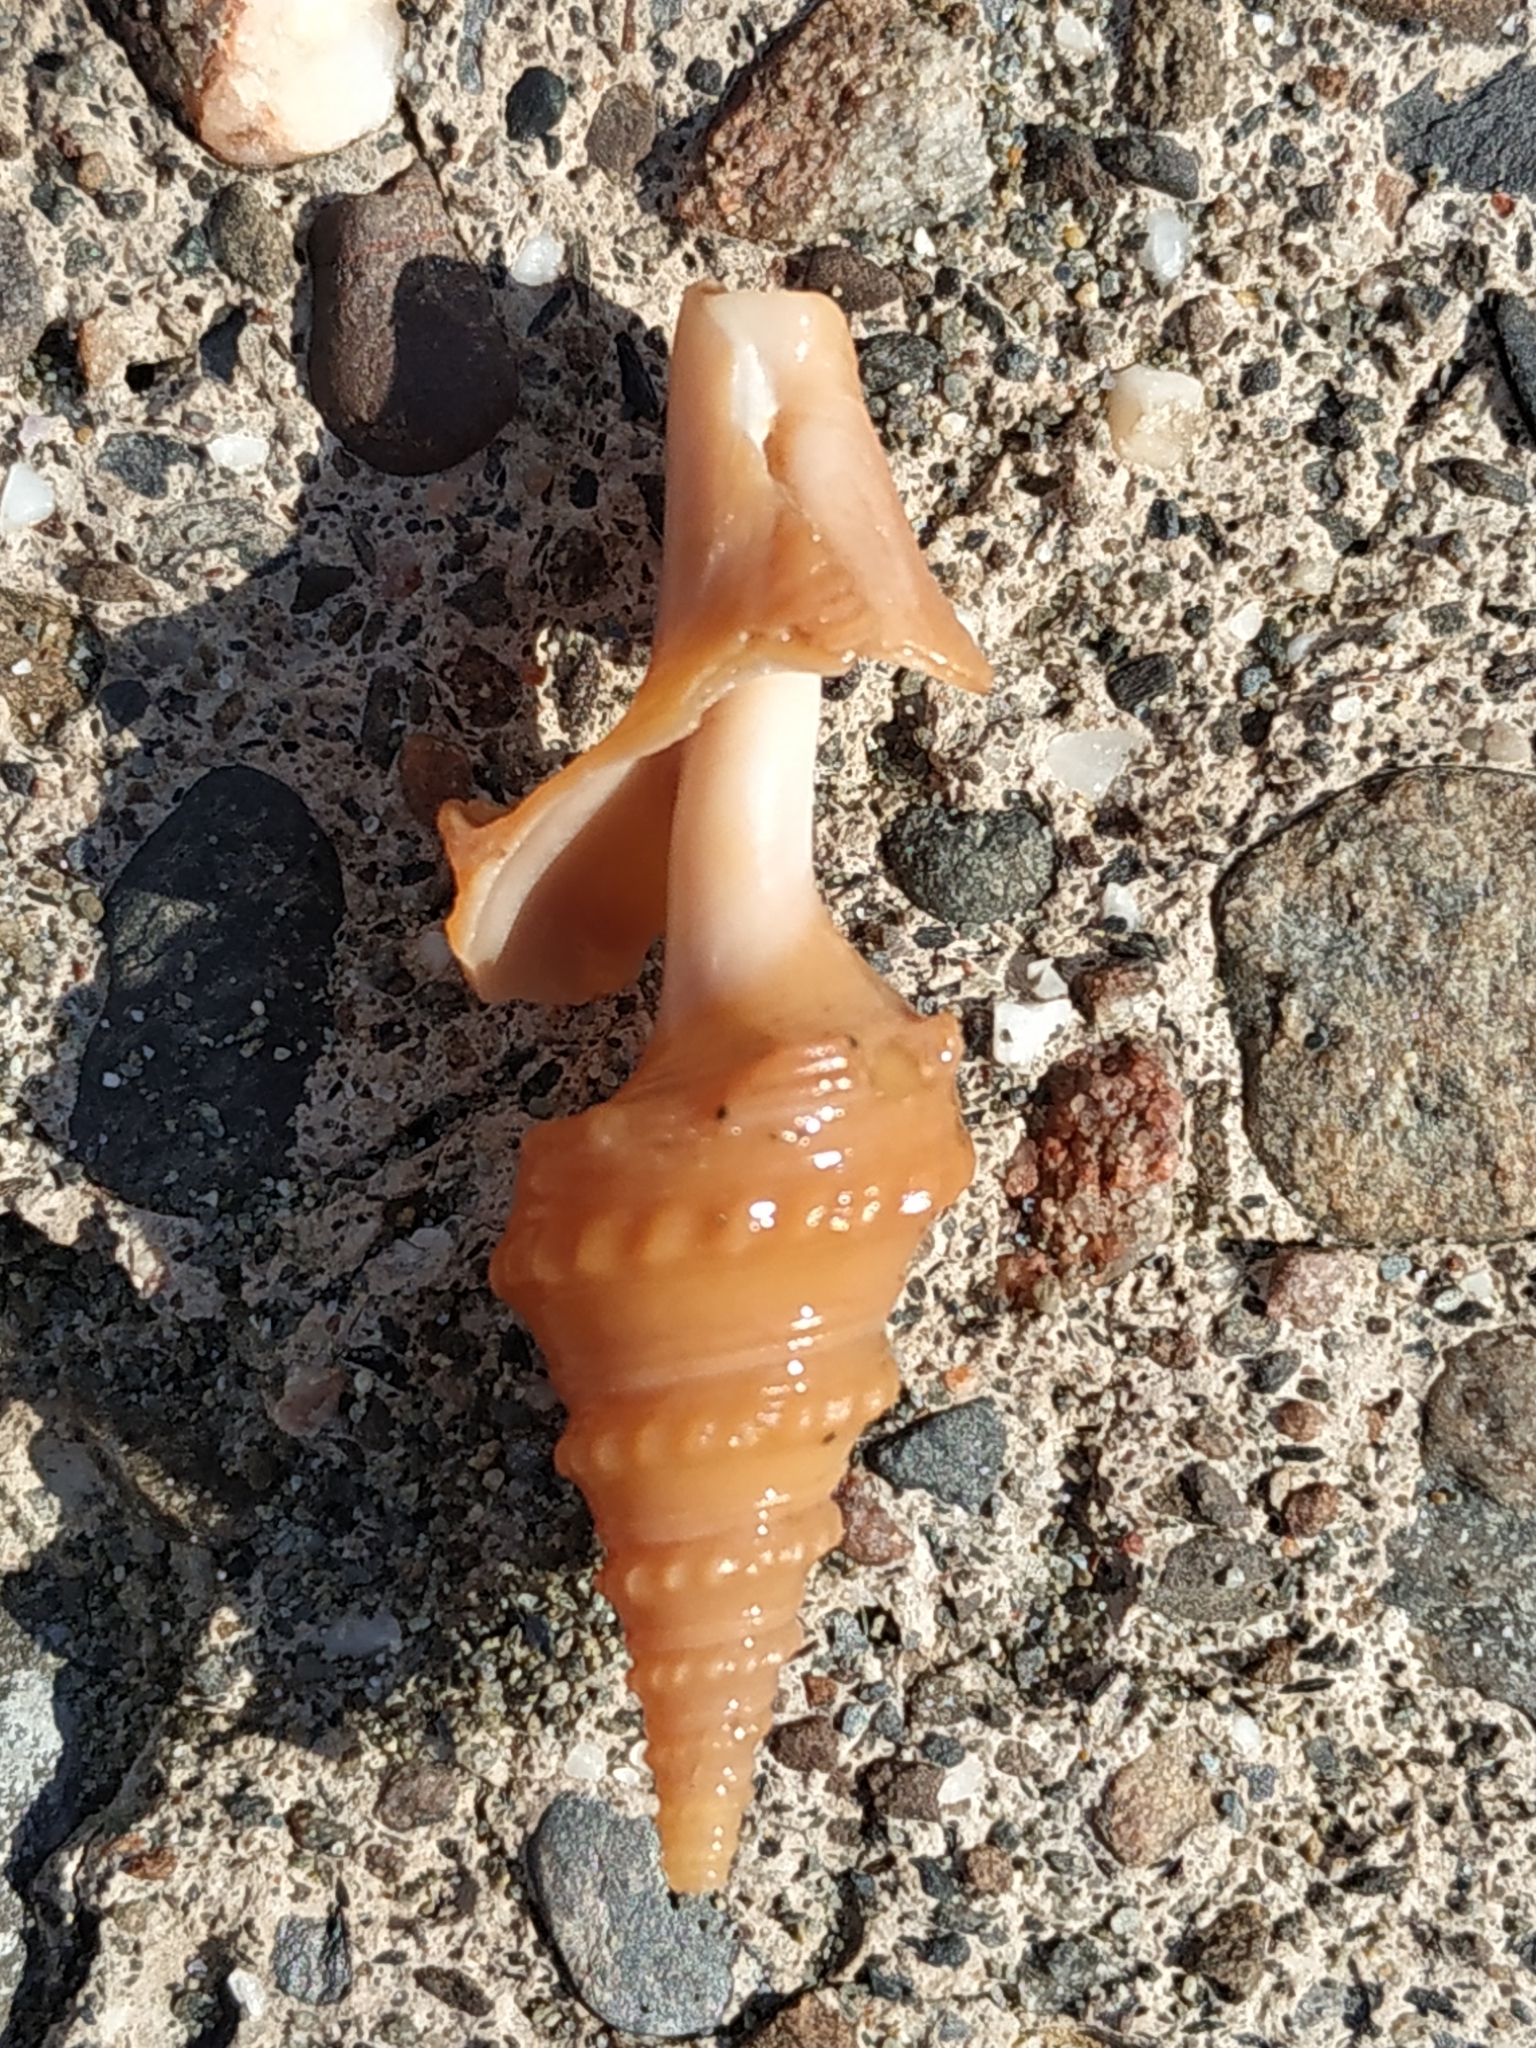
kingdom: Animalia
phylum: Mollusca
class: Gastropoda
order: Neogastropoda
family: Clavatulidae
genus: Turricula
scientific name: Turricula javana
